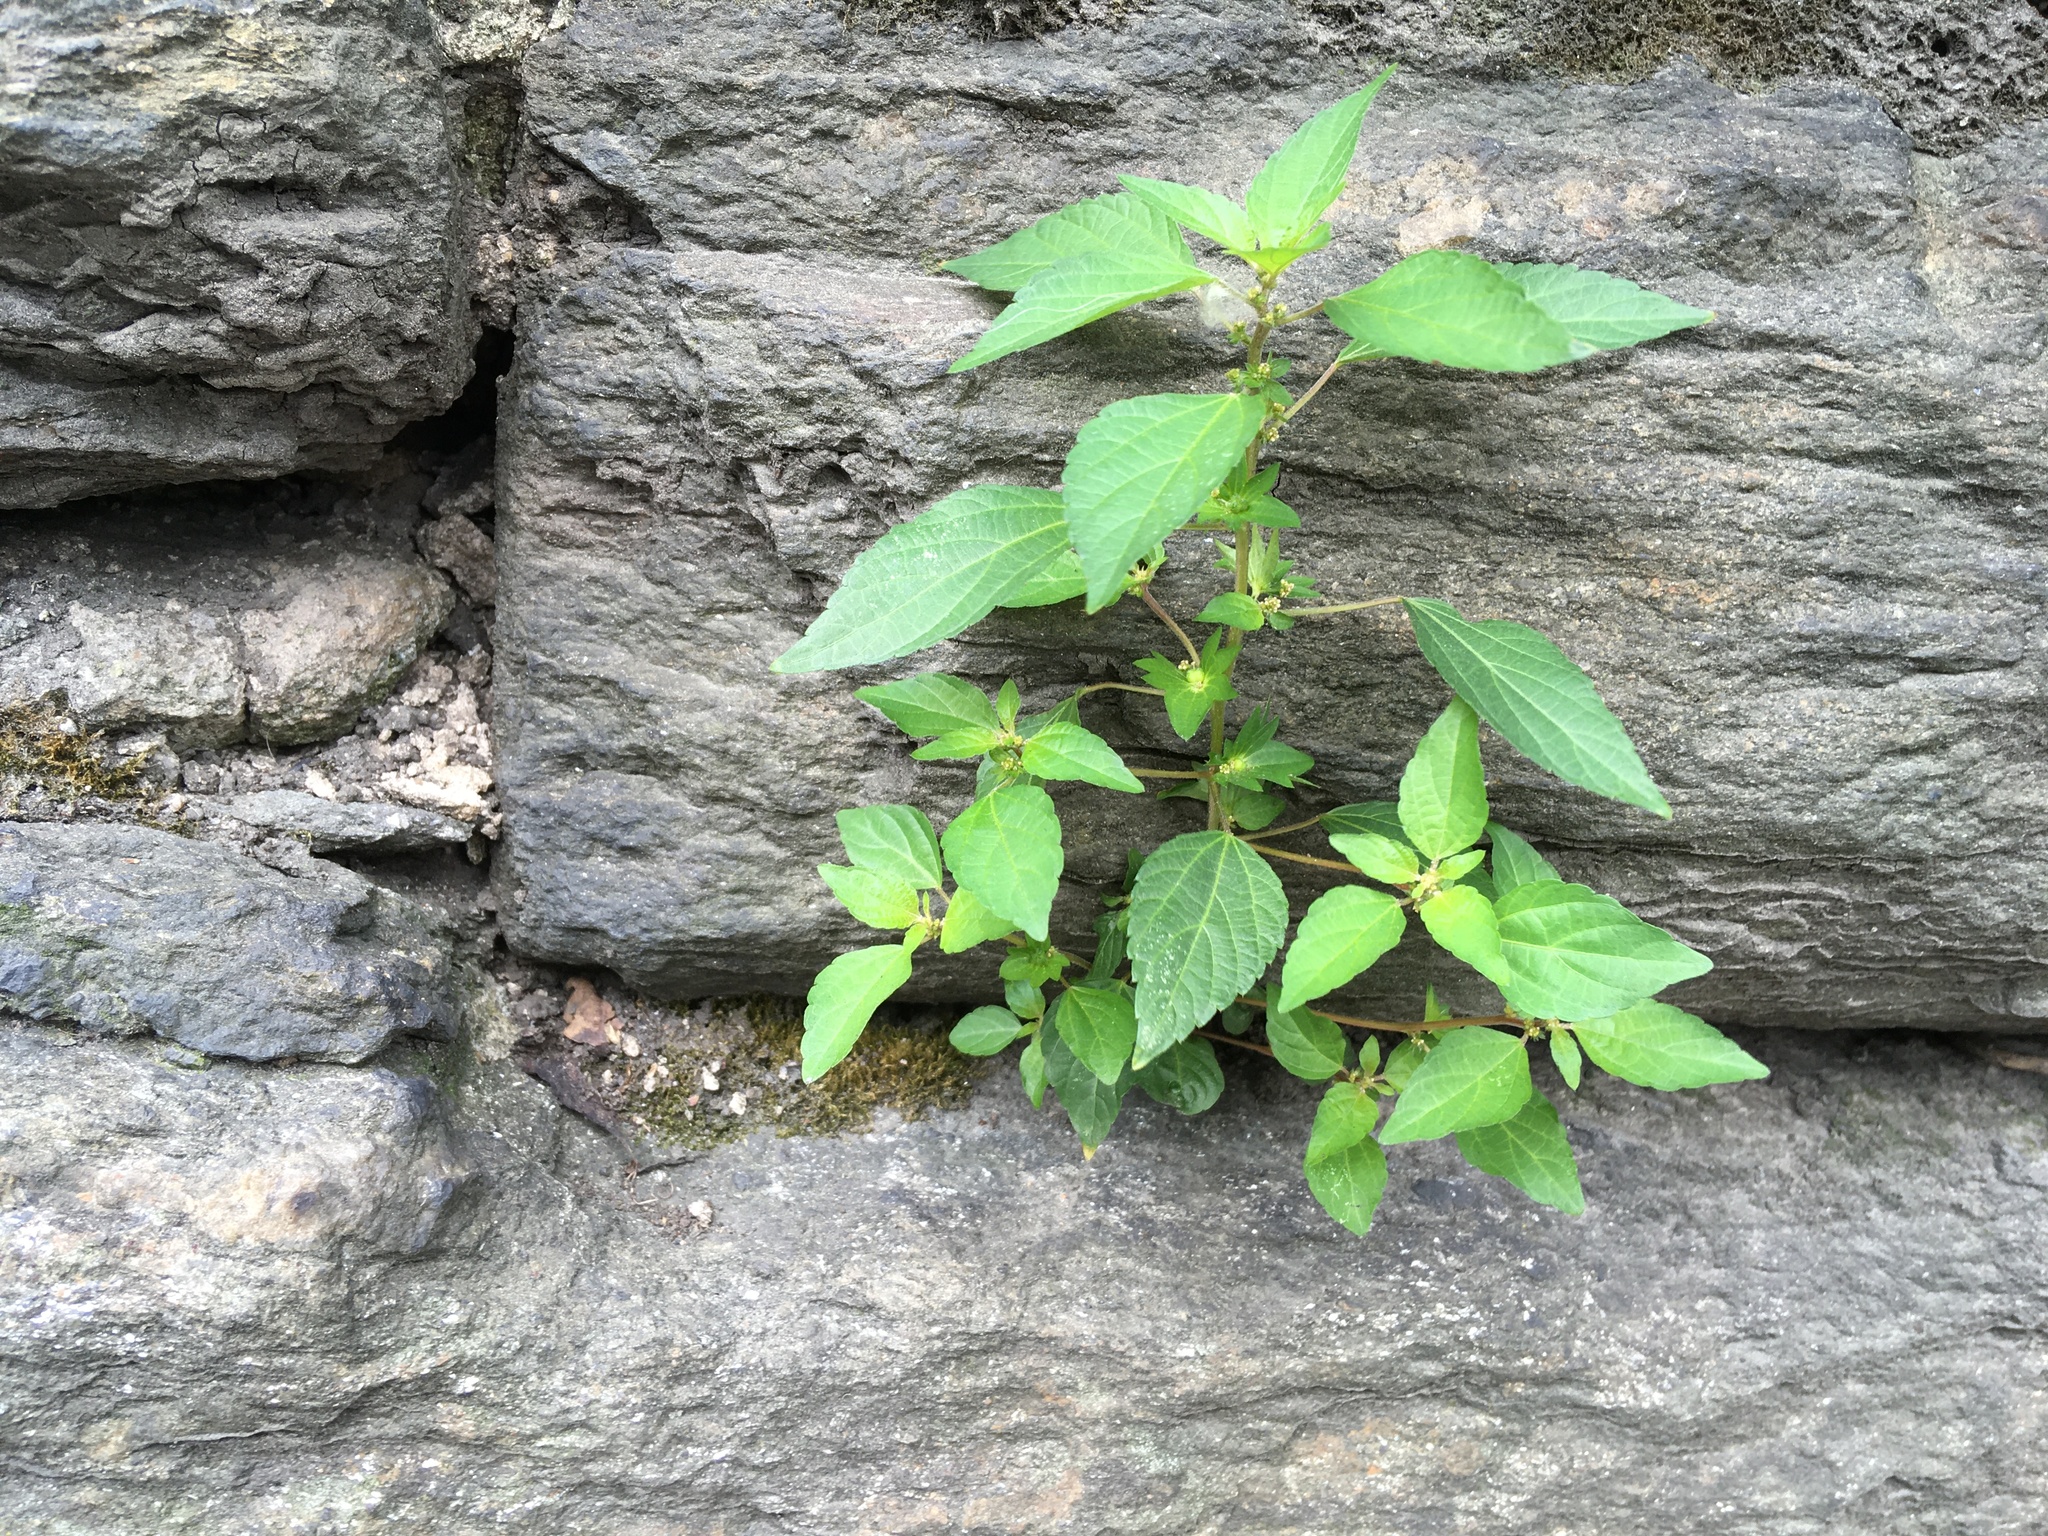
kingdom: Plantae
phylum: Tracheophyta
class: Magnoliopsida
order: Malpighiales
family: Euphorbiaceae
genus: Acalypha
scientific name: Acalypha rhomboidea
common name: Rhombic copperleaf
